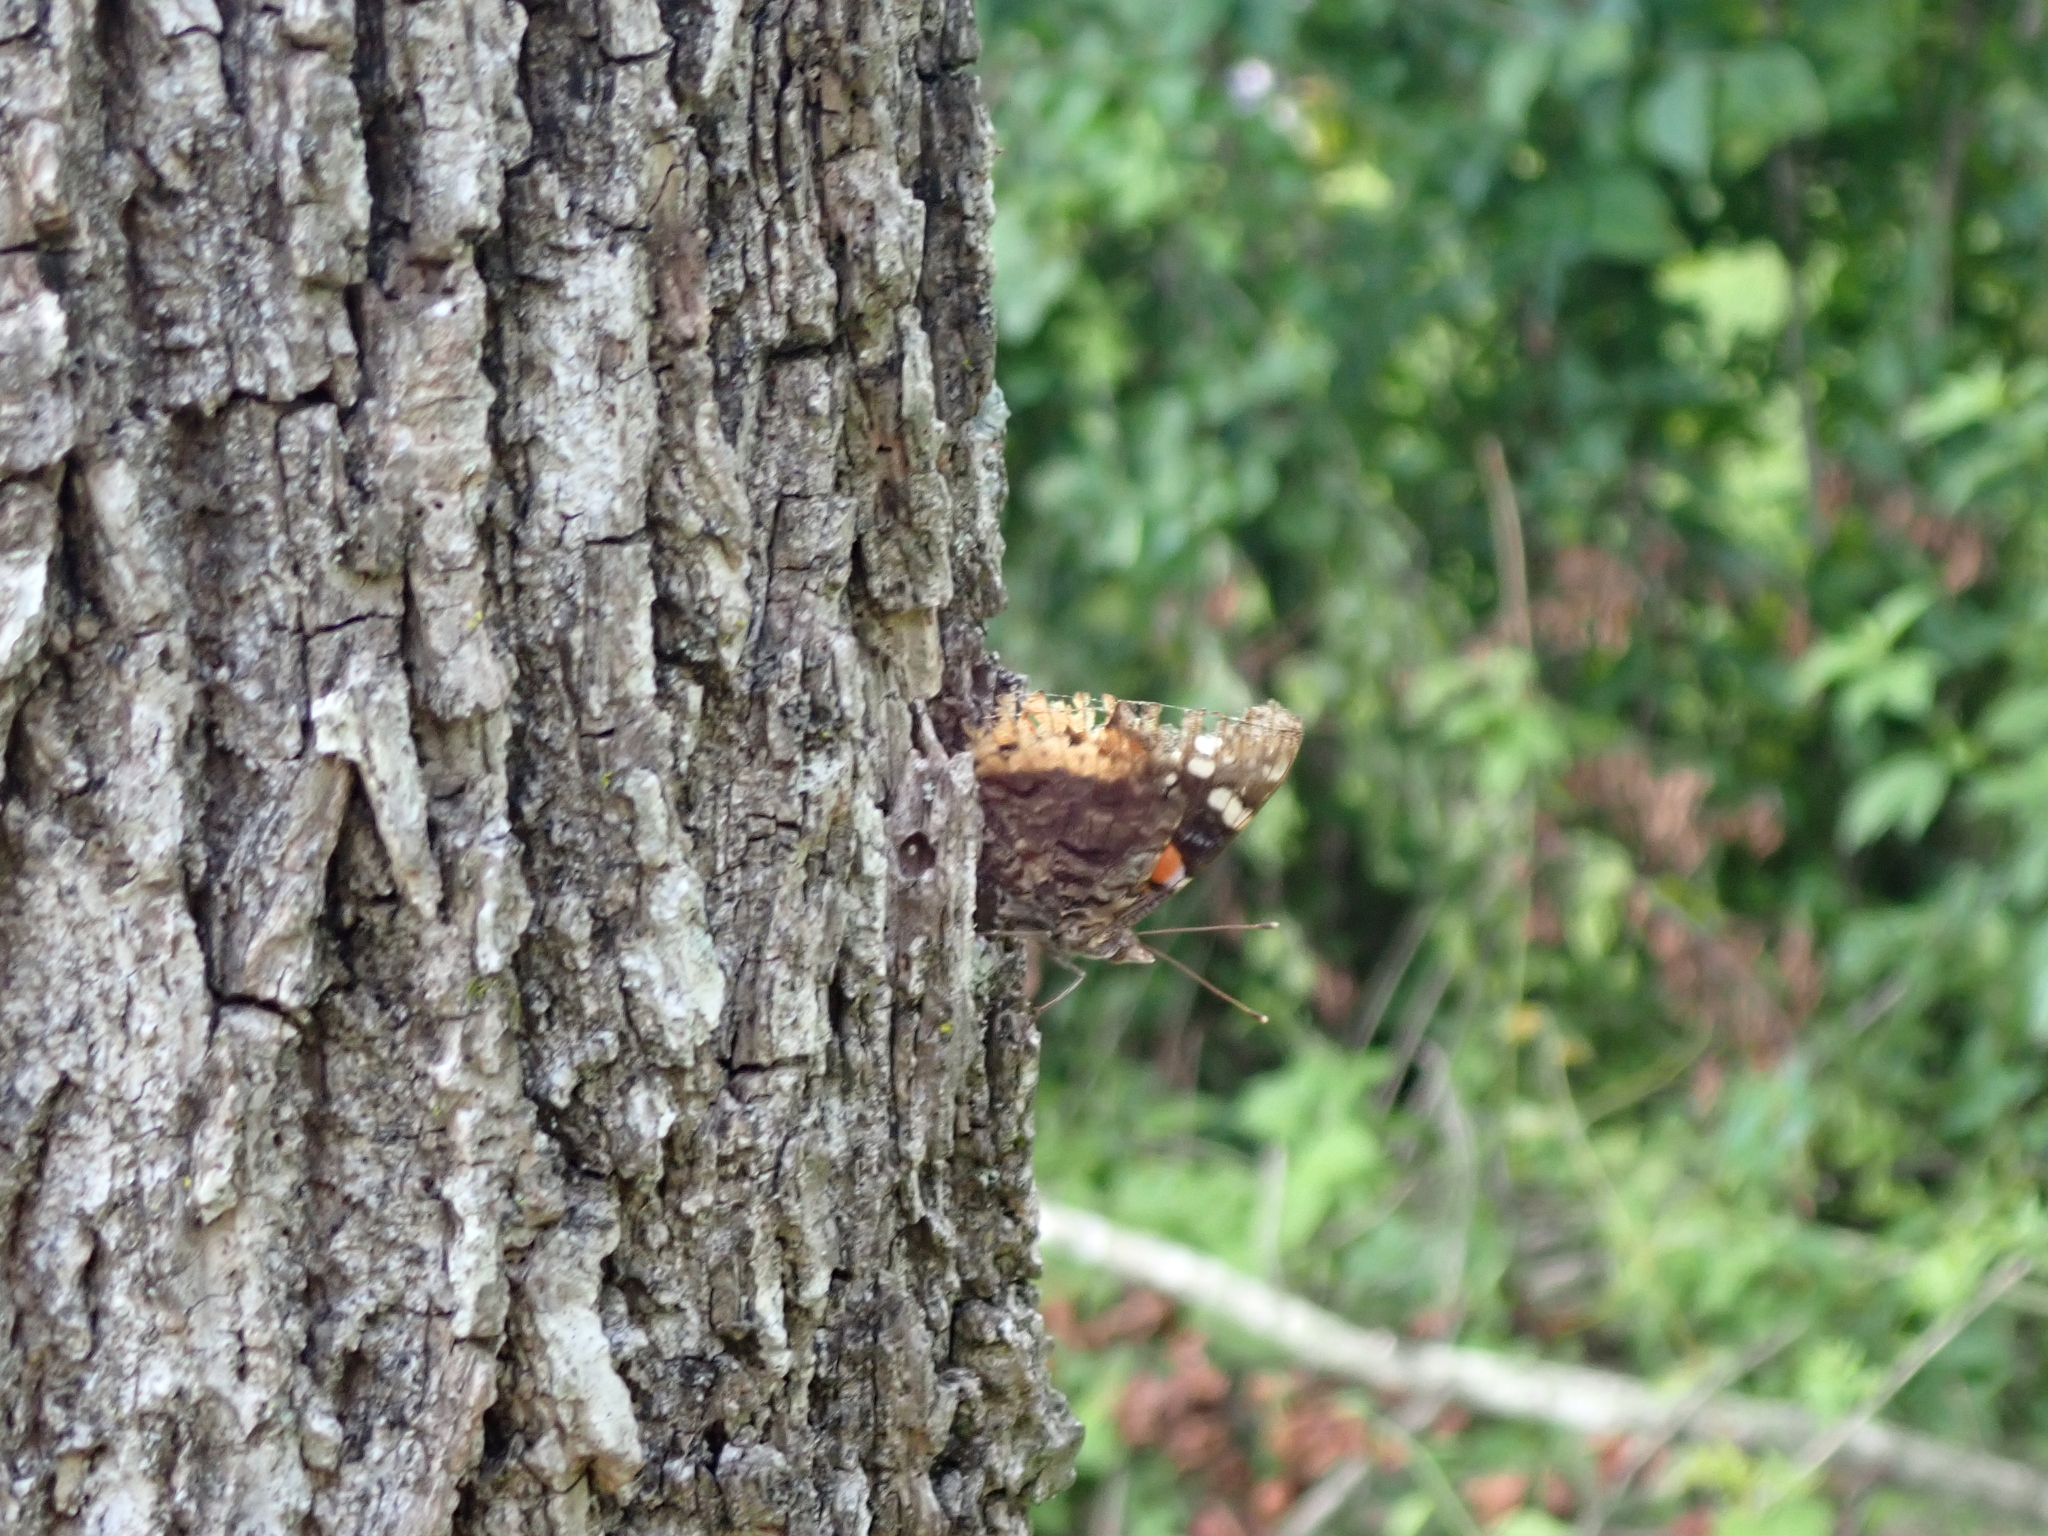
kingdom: Animalia
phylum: Arthropoda
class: Insecta
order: Lepidoptera
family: Nymphalidae
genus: Vanessa
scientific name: Vanessa atalanta
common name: Red admiral
